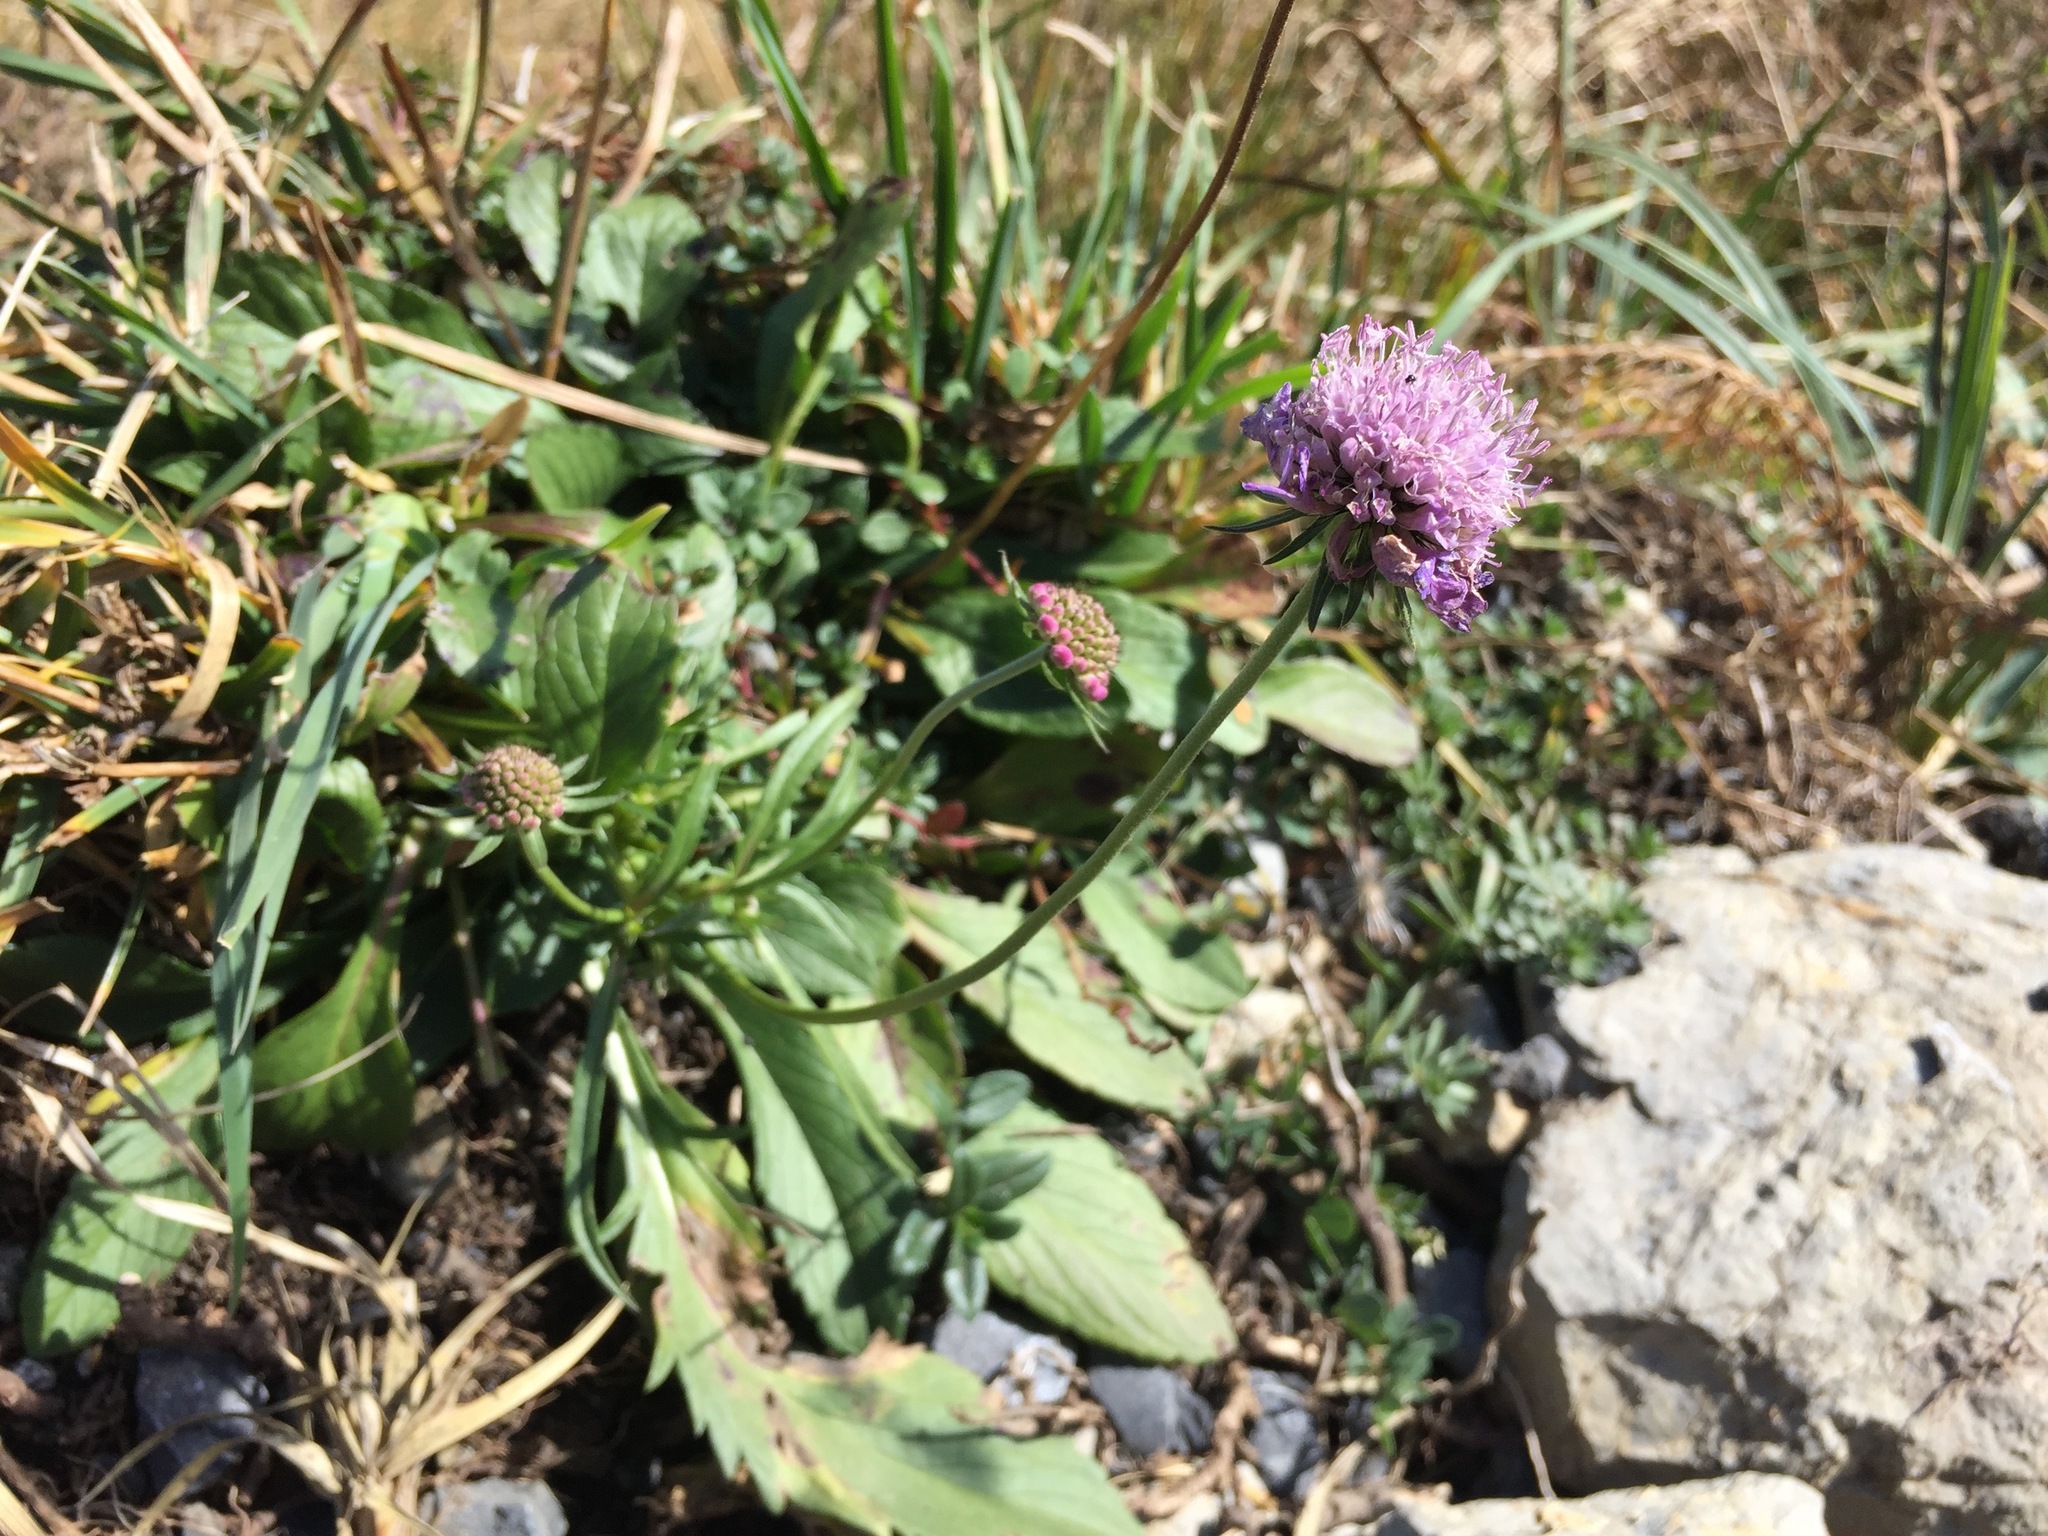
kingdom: Plantae
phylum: Tracheophyta
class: Magnoliopsida
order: Dipsacales
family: Caprifoliaceae
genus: Scabiosa
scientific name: Scabiosa lucida
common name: Shining scabious
